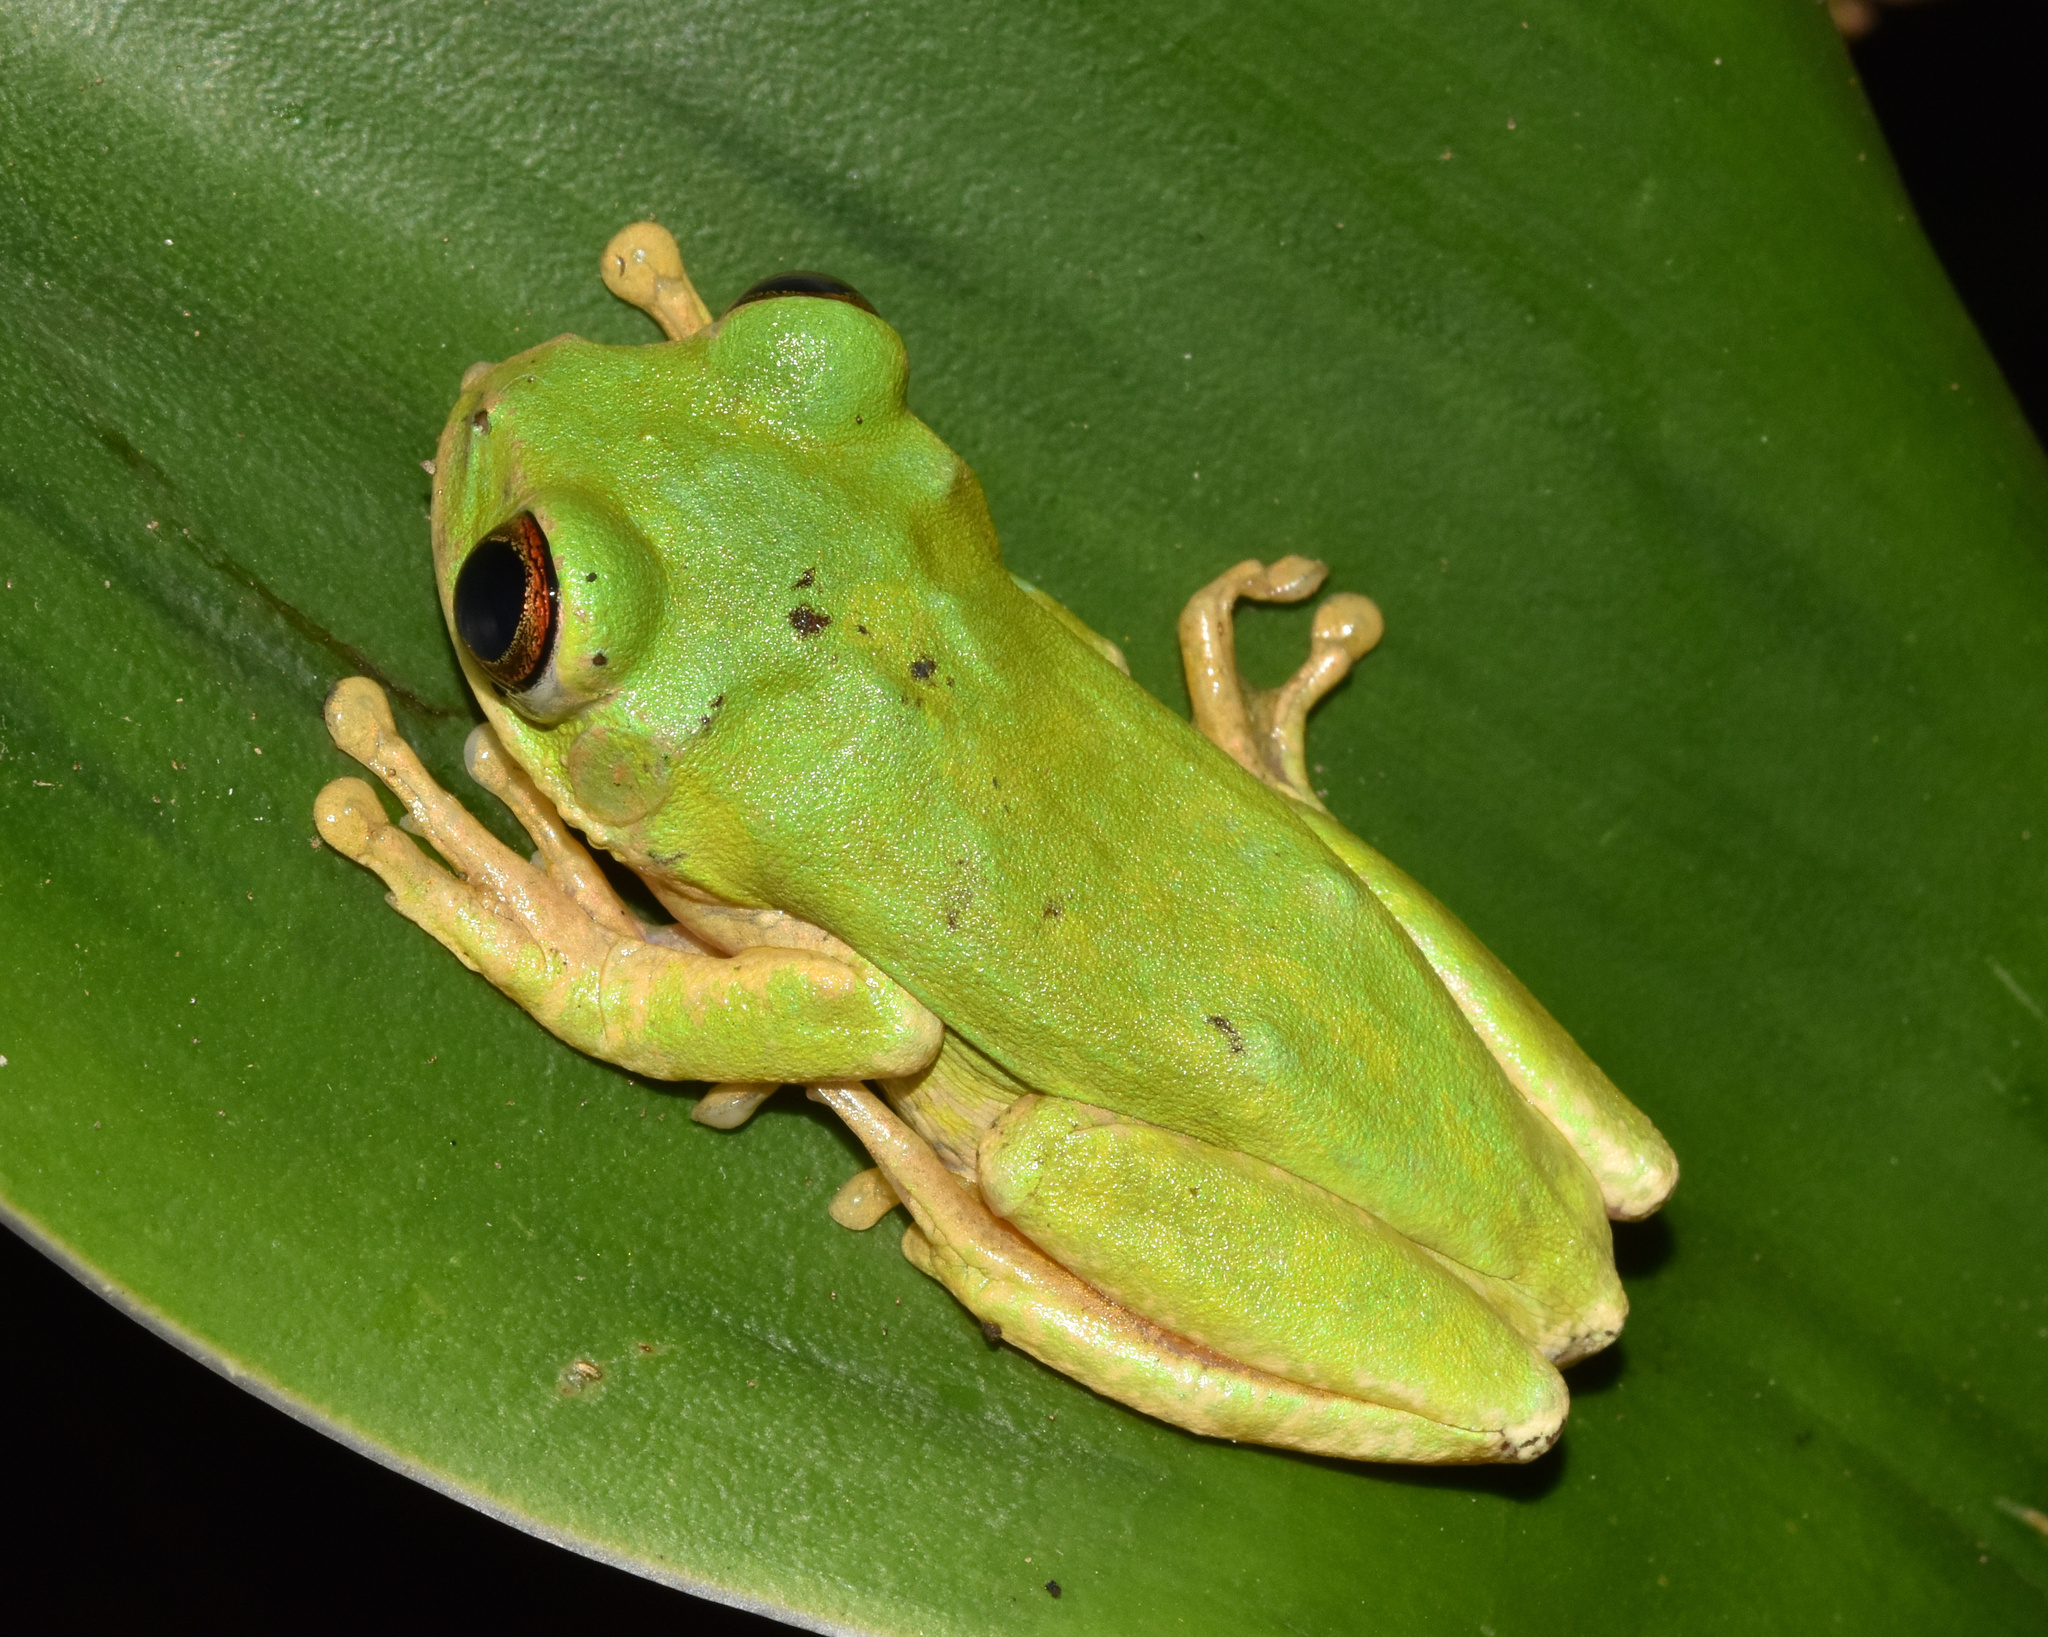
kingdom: Animalia
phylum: Chordata
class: Amphibia
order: Anura
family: Arthroleptidae
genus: Leptopelis
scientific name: Leptopelis natalensis
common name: Natal tree frog
